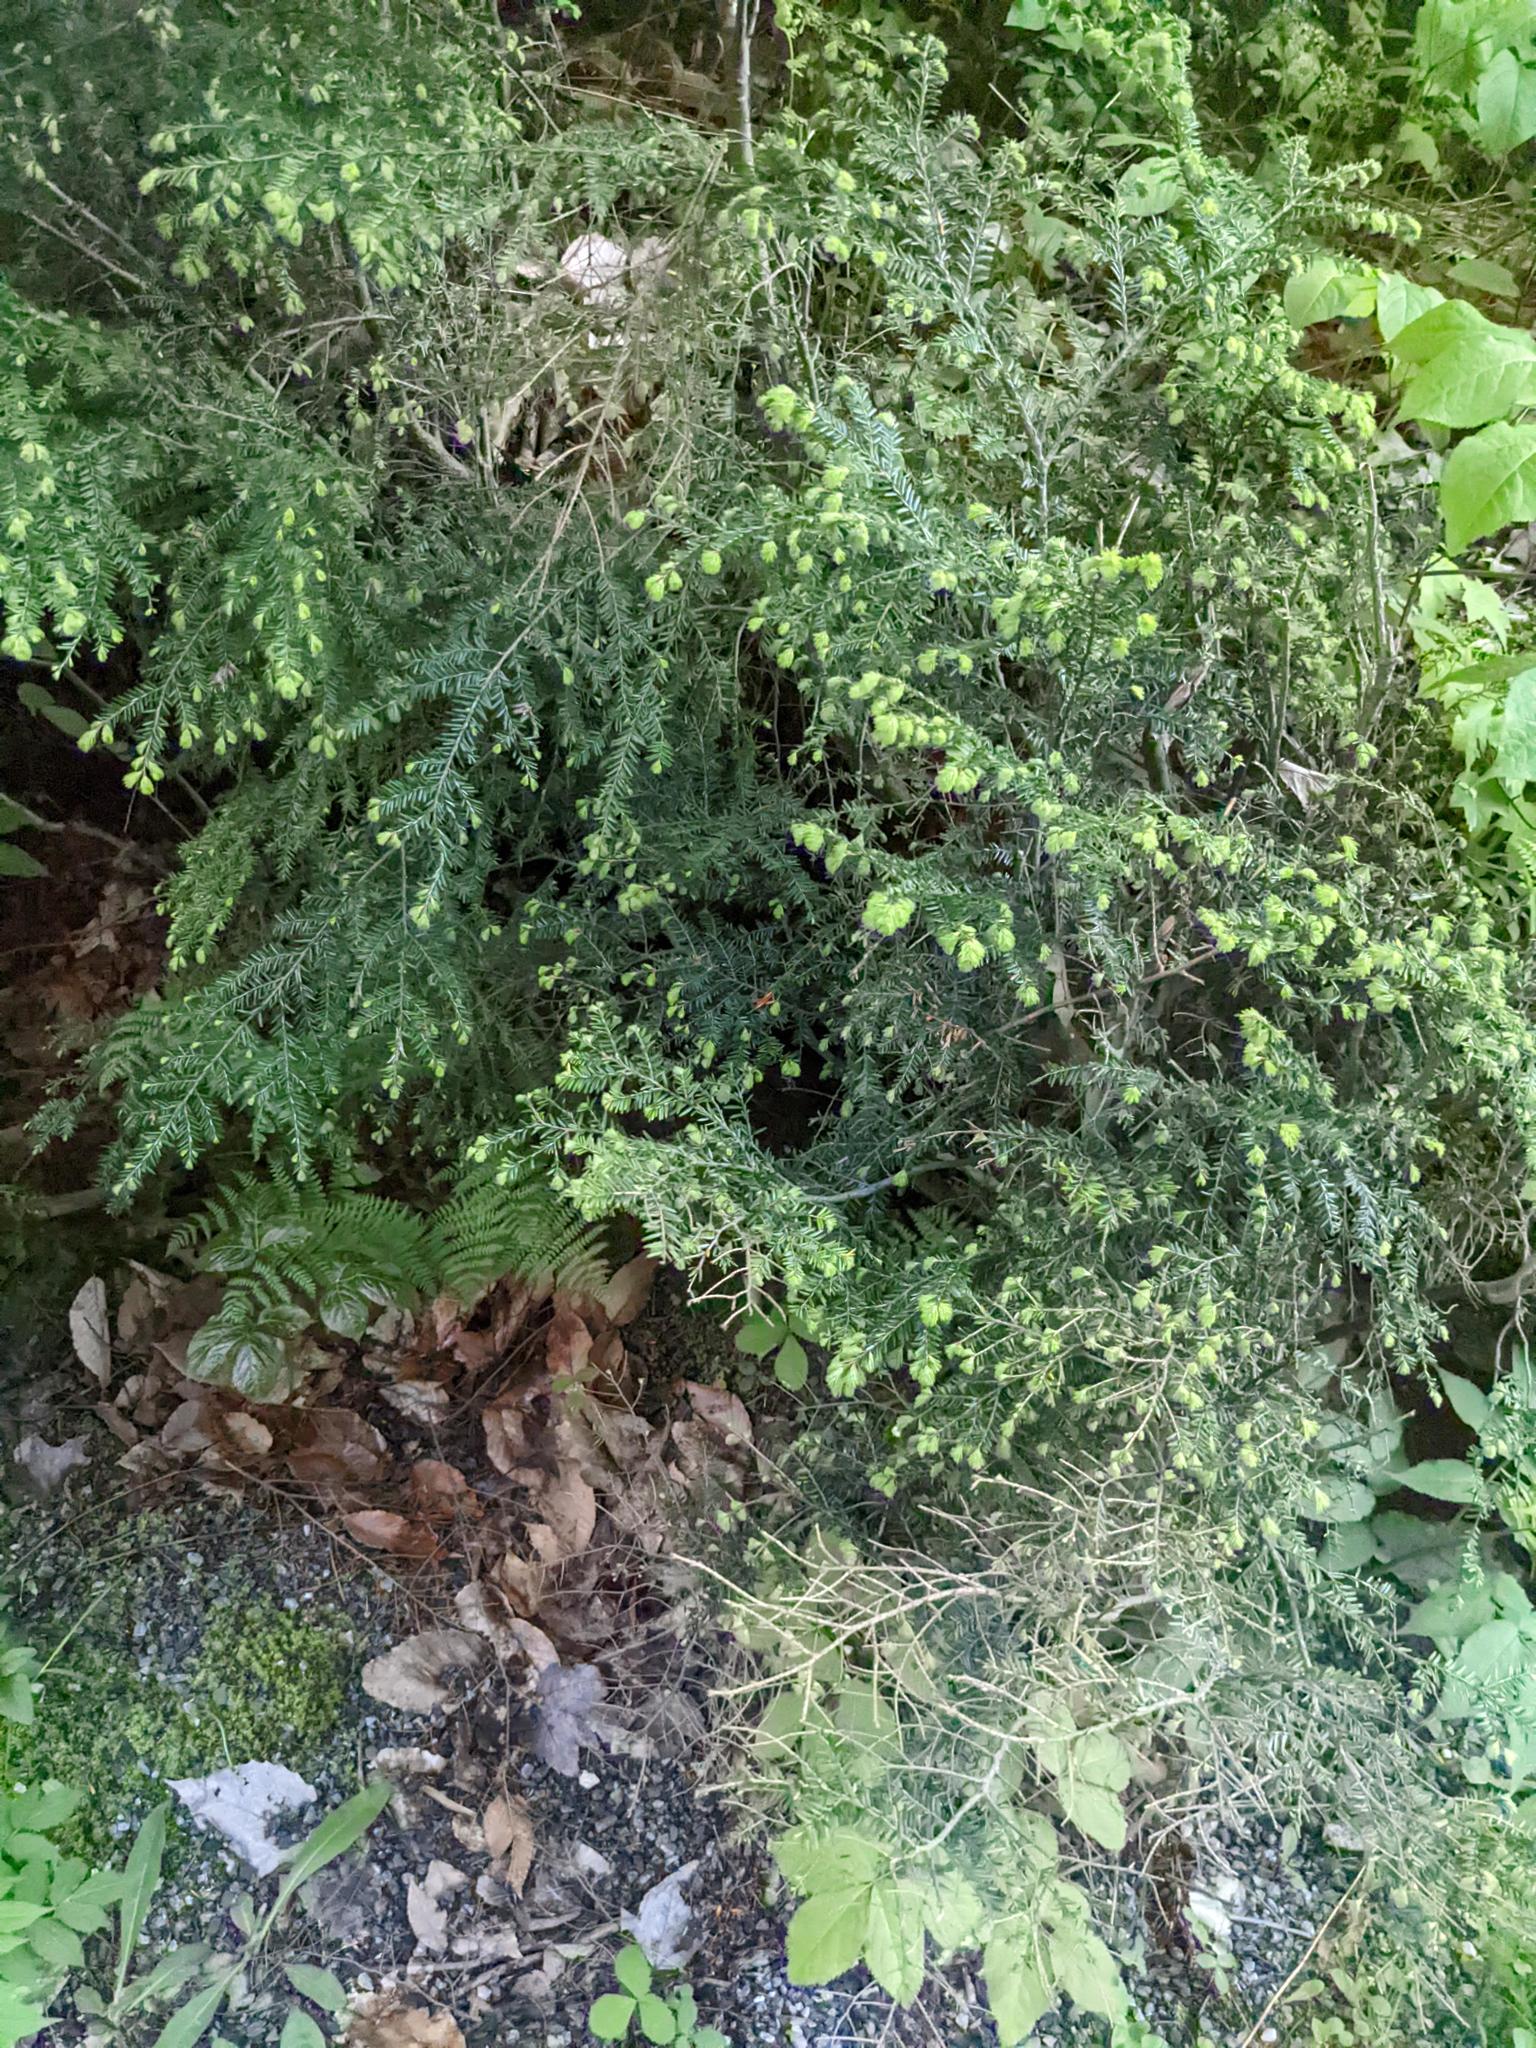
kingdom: Plantae
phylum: Tracheophyta
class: Pinopsida
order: Pinales
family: Pinaceae
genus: Tsuga
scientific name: Tsuga canadensis
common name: Eastern hemlock
